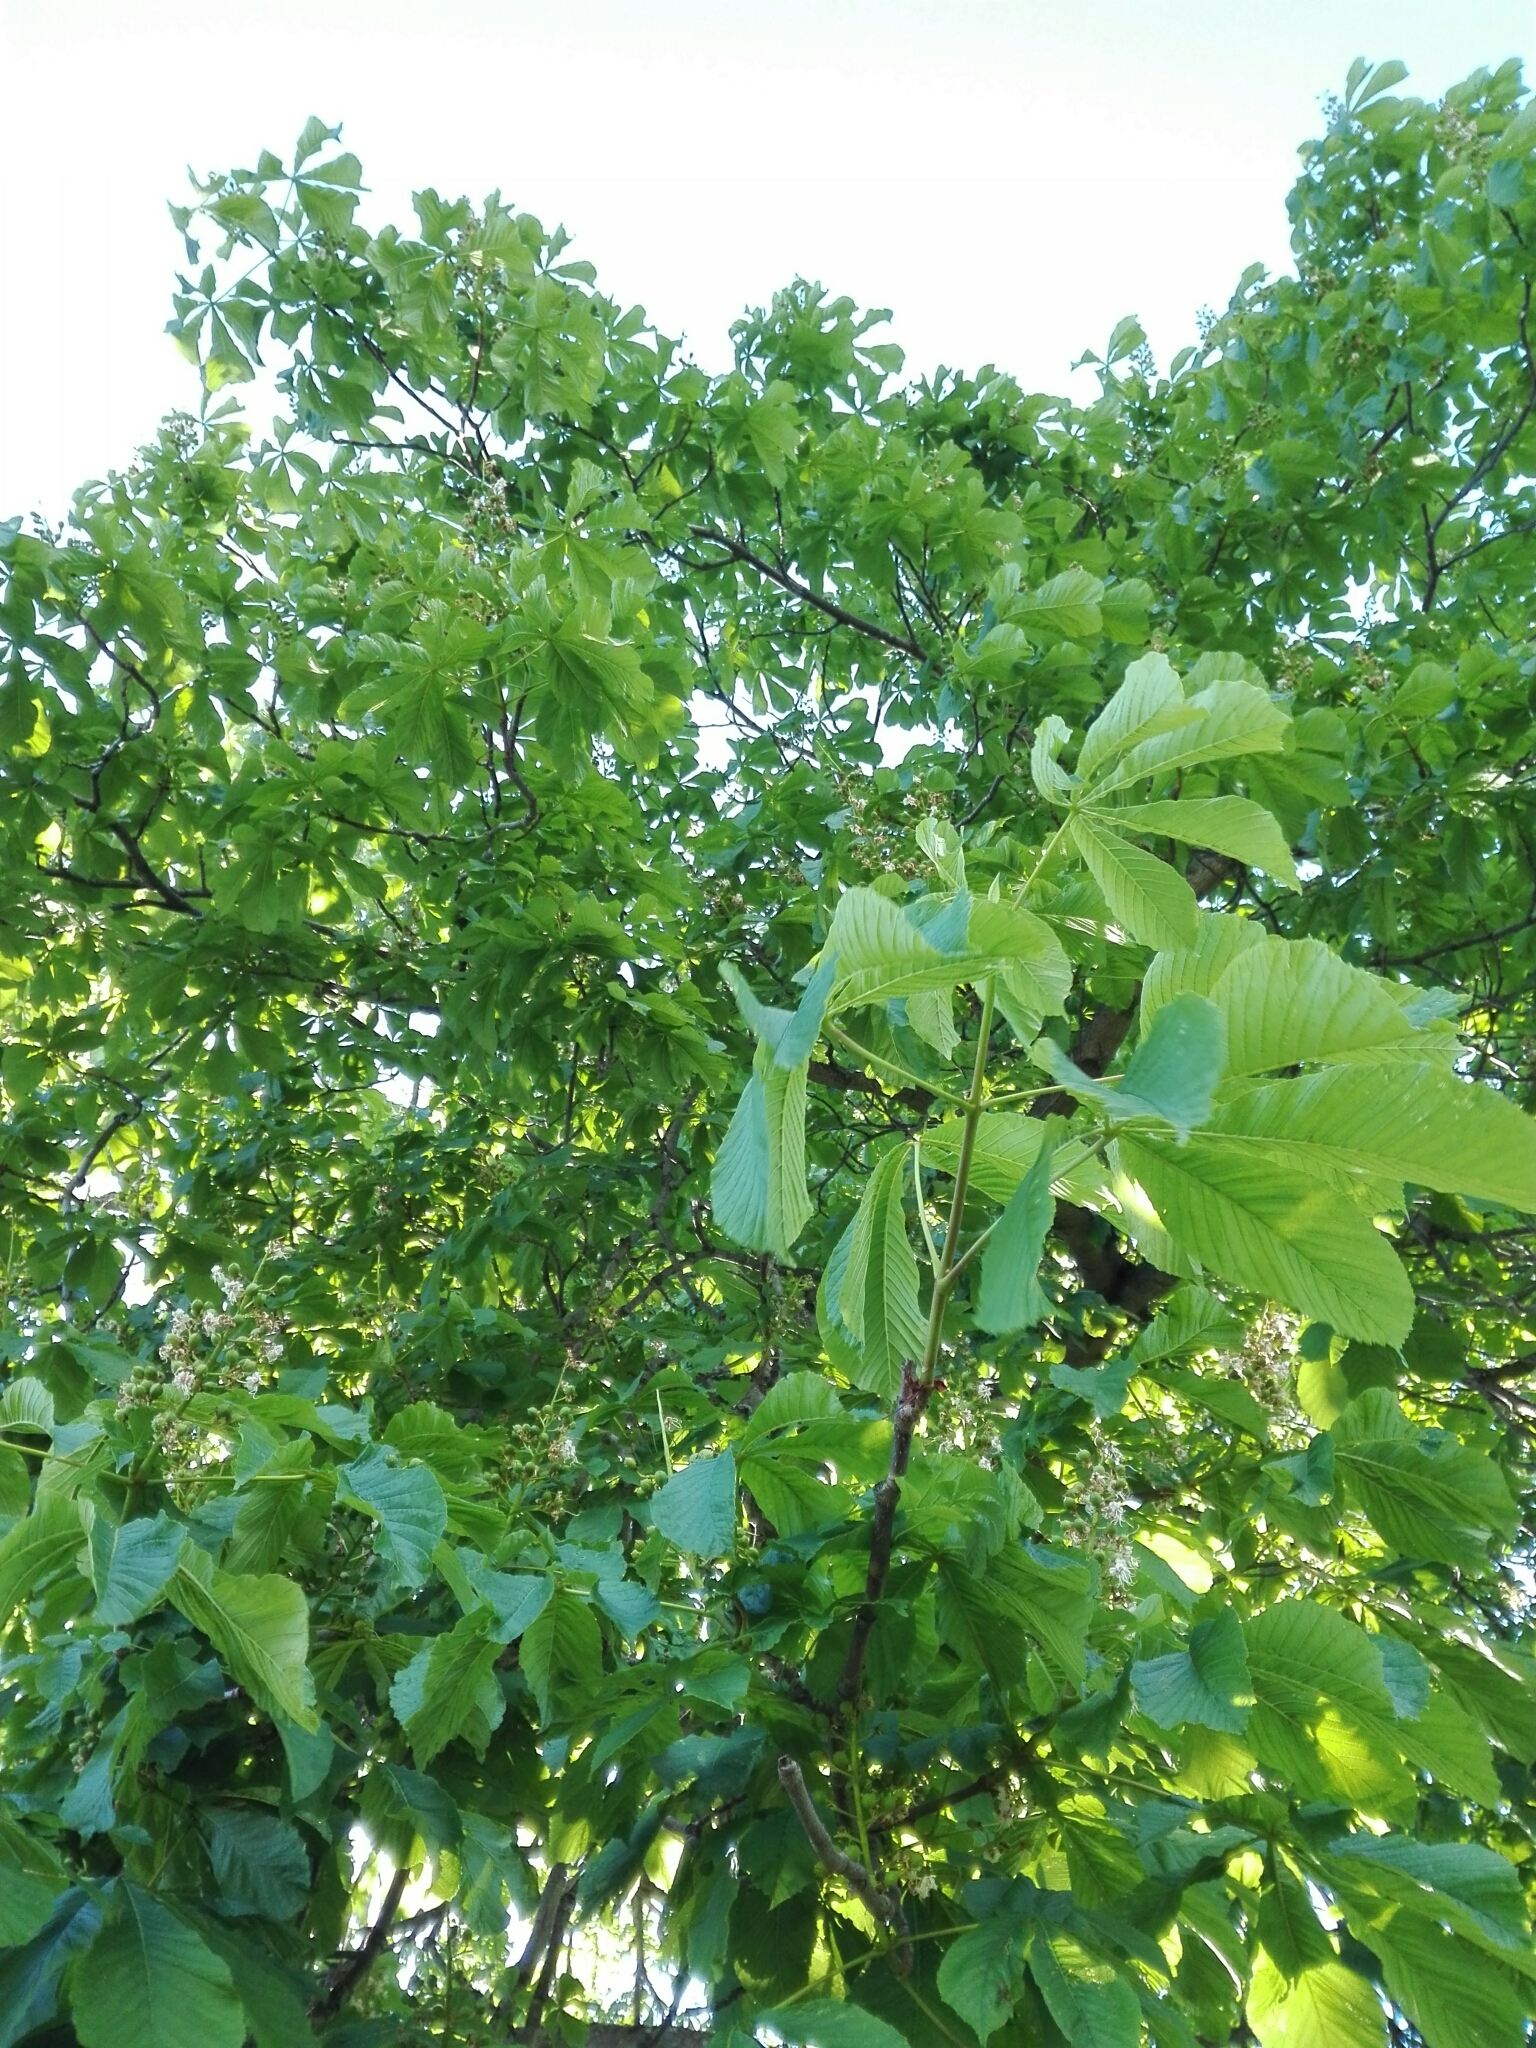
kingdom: Plantae
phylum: Tracheophyta
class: Magnoliopsida
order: Sapindales
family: Sapindaceae
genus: Aesculus
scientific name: Aesculus hippocastanum
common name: Horse-chestnut
